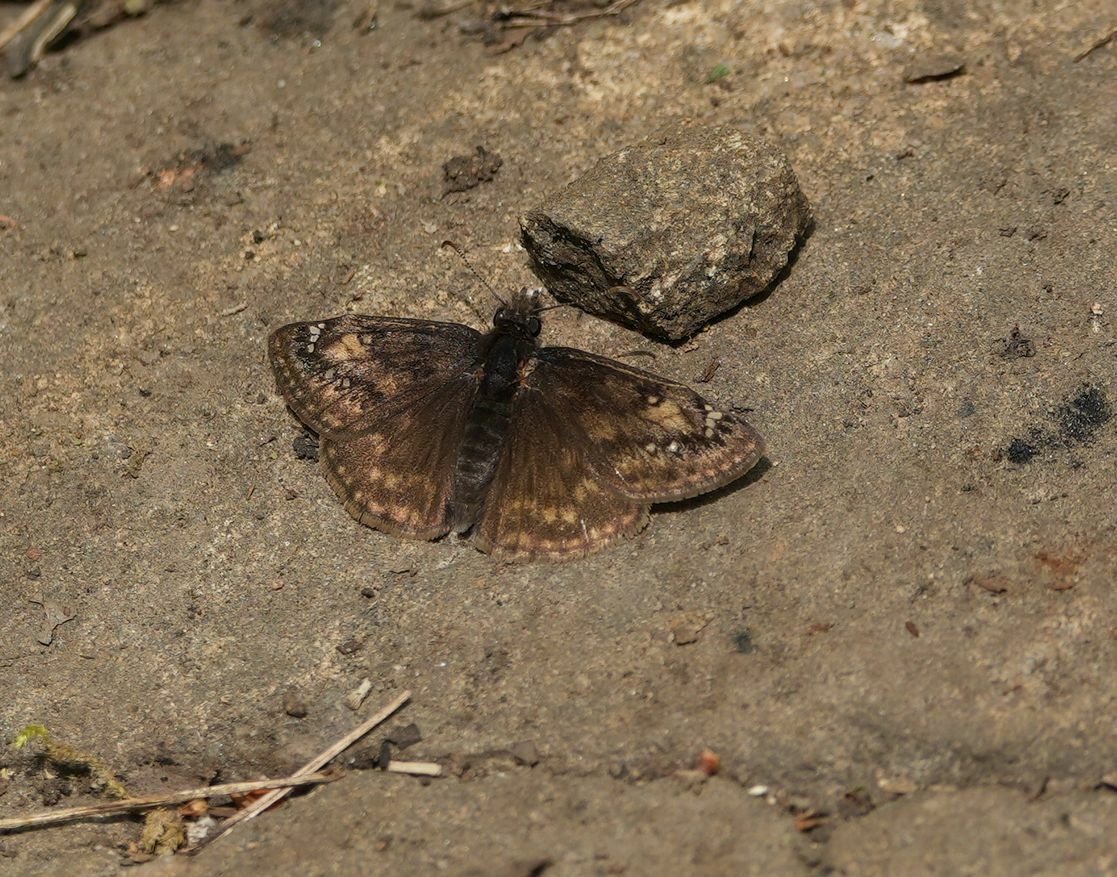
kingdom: Animalia
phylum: Arthropoda
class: Insecta
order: Lepidoptera
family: Hesperiidae
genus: Erynnis
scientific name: Erynnis juvenalis
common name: Juvenal's duskywing
